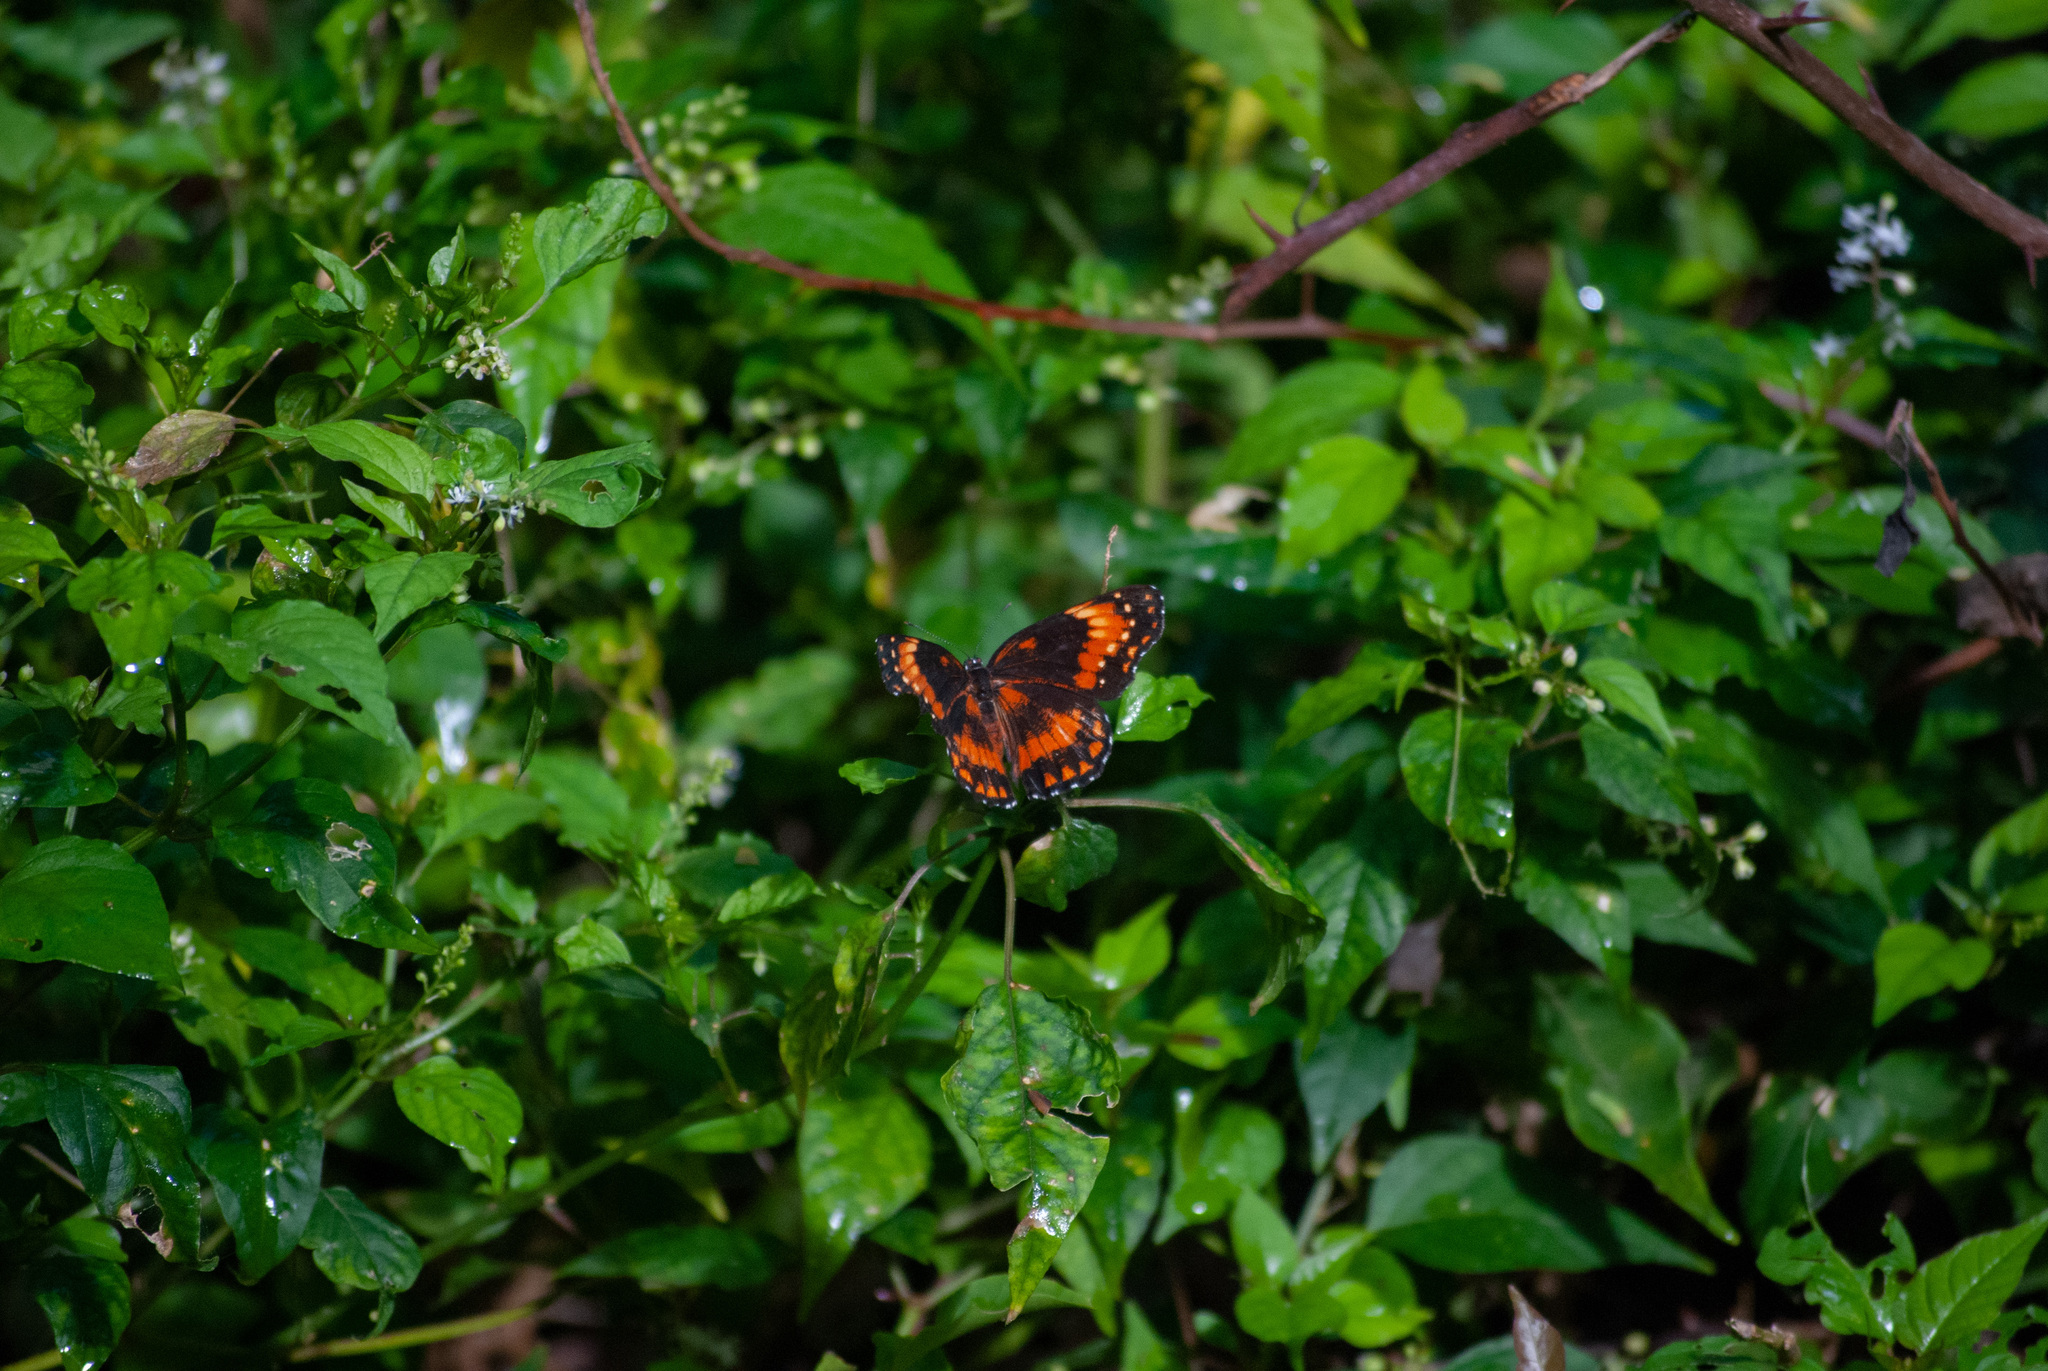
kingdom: Animalia
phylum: Arthropoda
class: Insecta
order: Lepidoptera
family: Nymphalidae
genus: Chlosyne
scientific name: Chlosyne lacinia
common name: Bordered patch
